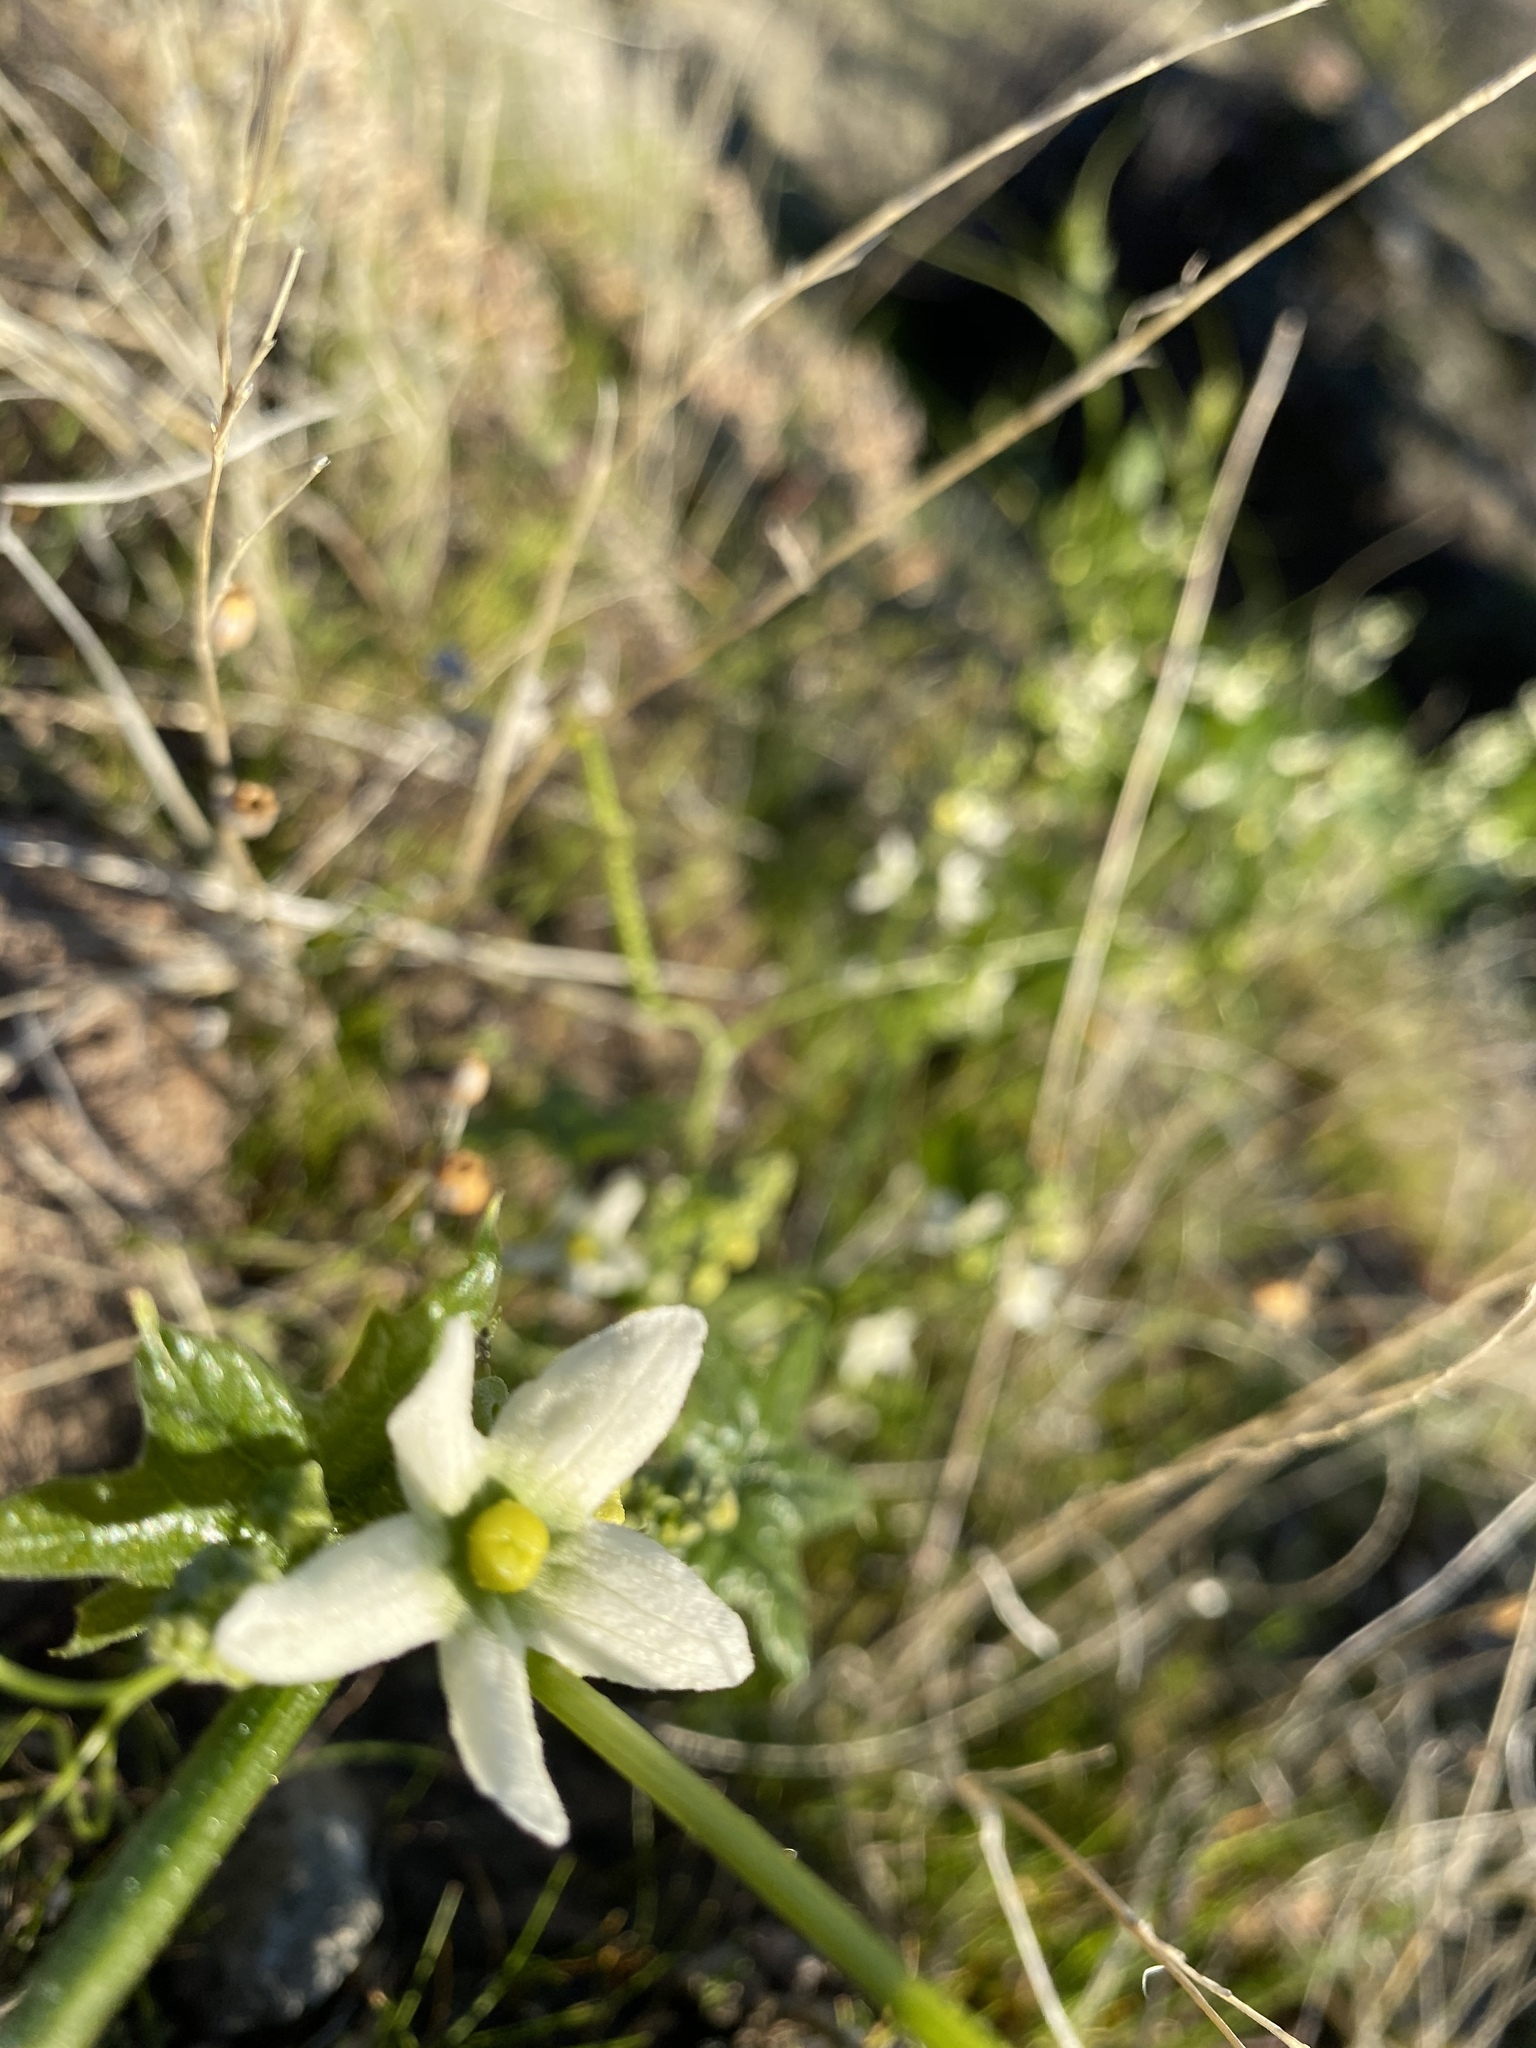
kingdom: Plantae
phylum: Tracheophyta
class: Magnoliopsida
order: Cucurbitales
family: Cucurbitaceae
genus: Marah
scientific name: Marah fabacea
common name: California manroot
